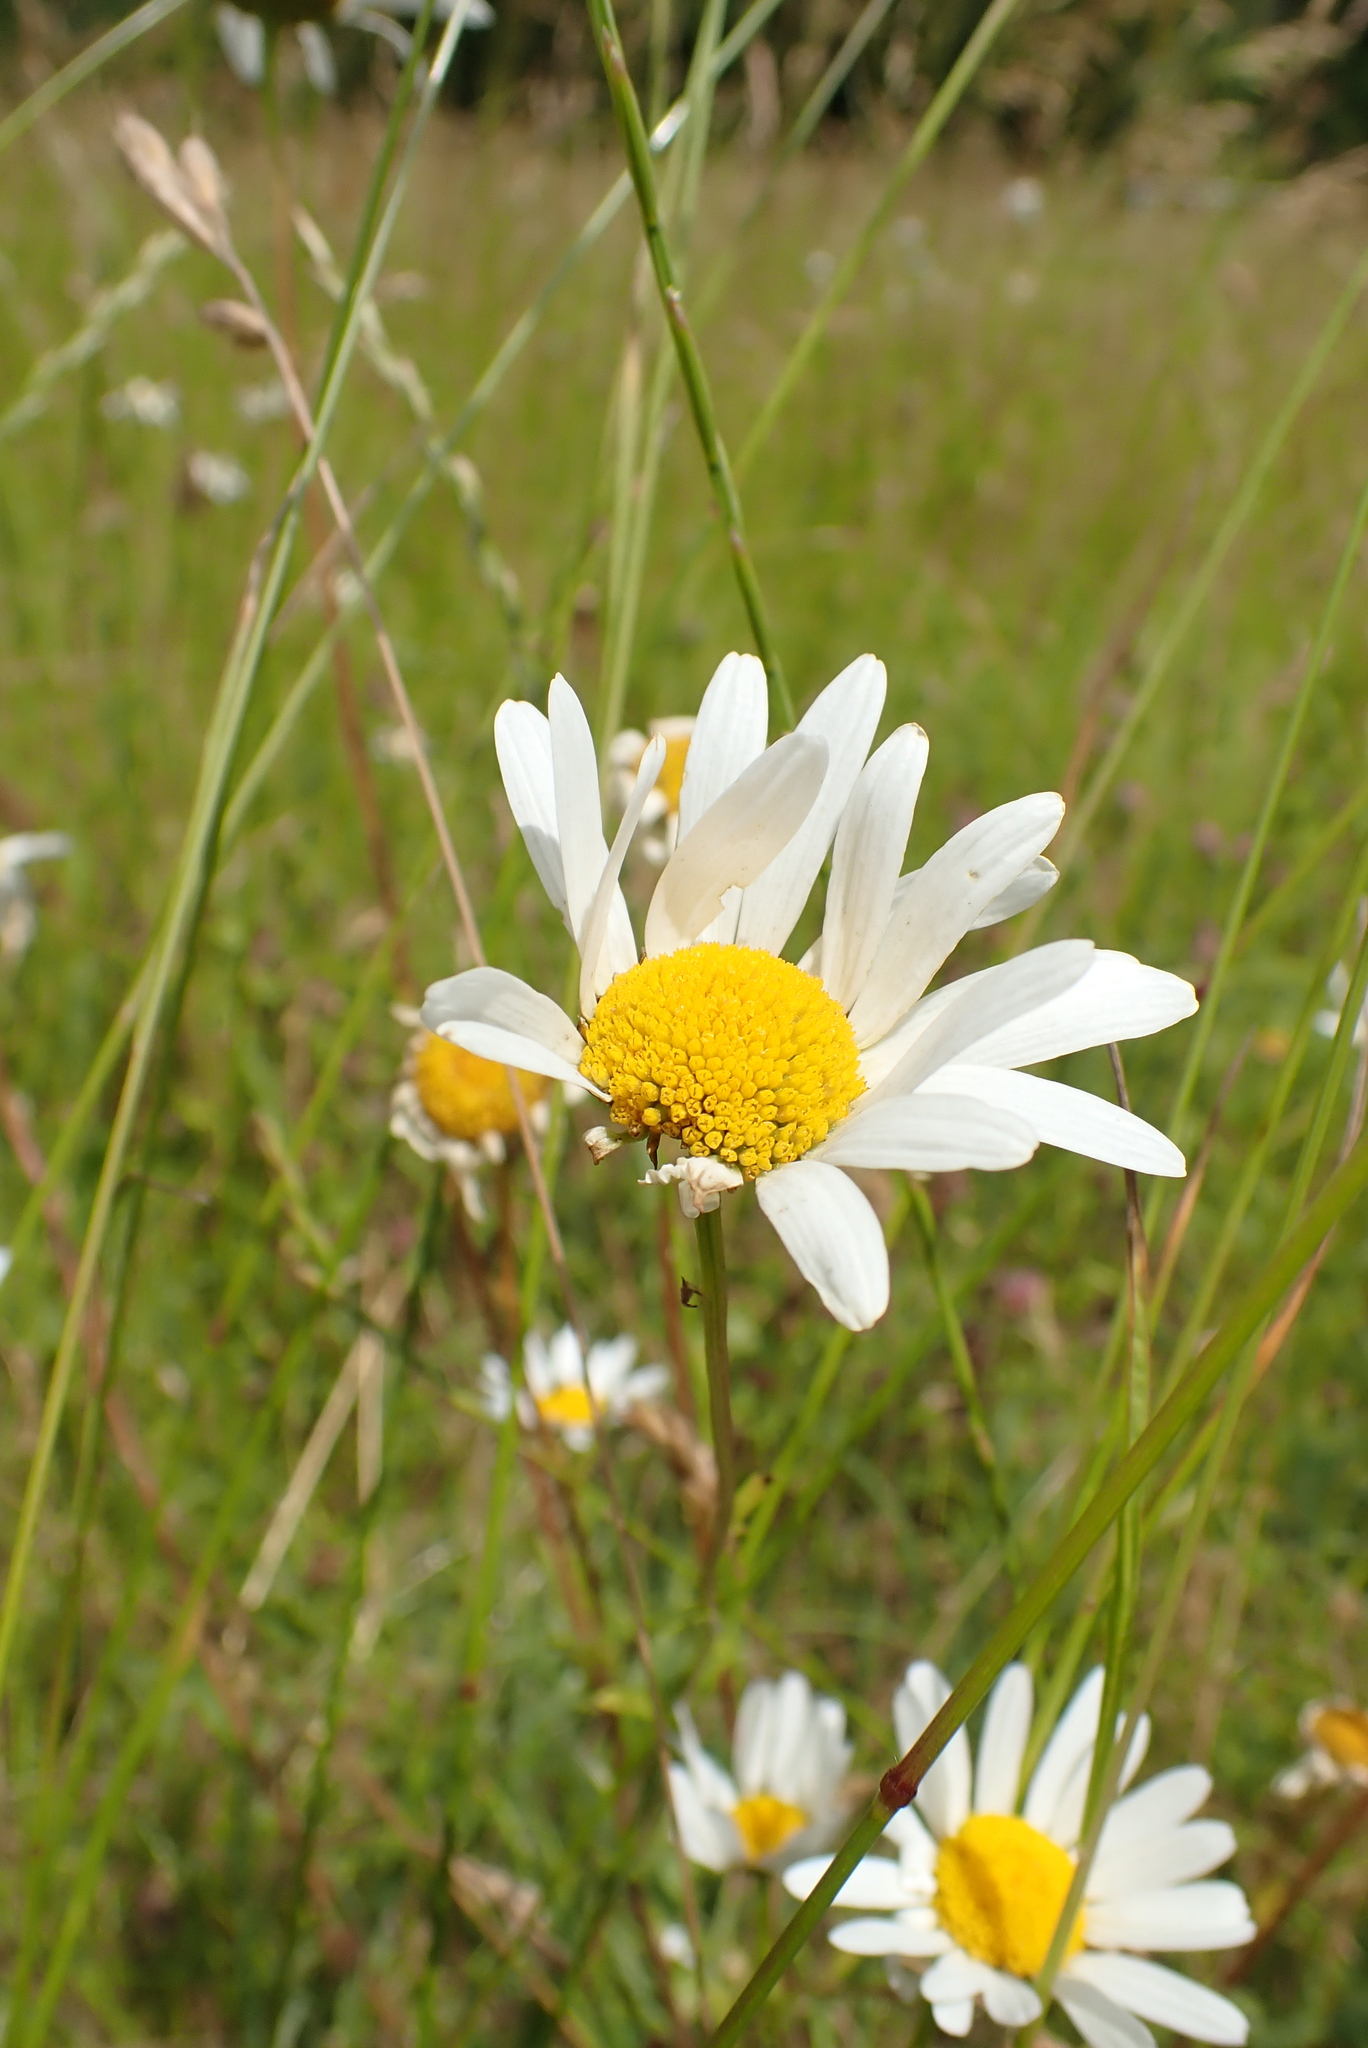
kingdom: Plantae
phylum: Tracheophyta
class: Magnoliopsida
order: Asterales
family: Asteraceae
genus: Leucanthemum
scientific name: Leucanthemum vulgare
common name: Oxeye daisy
